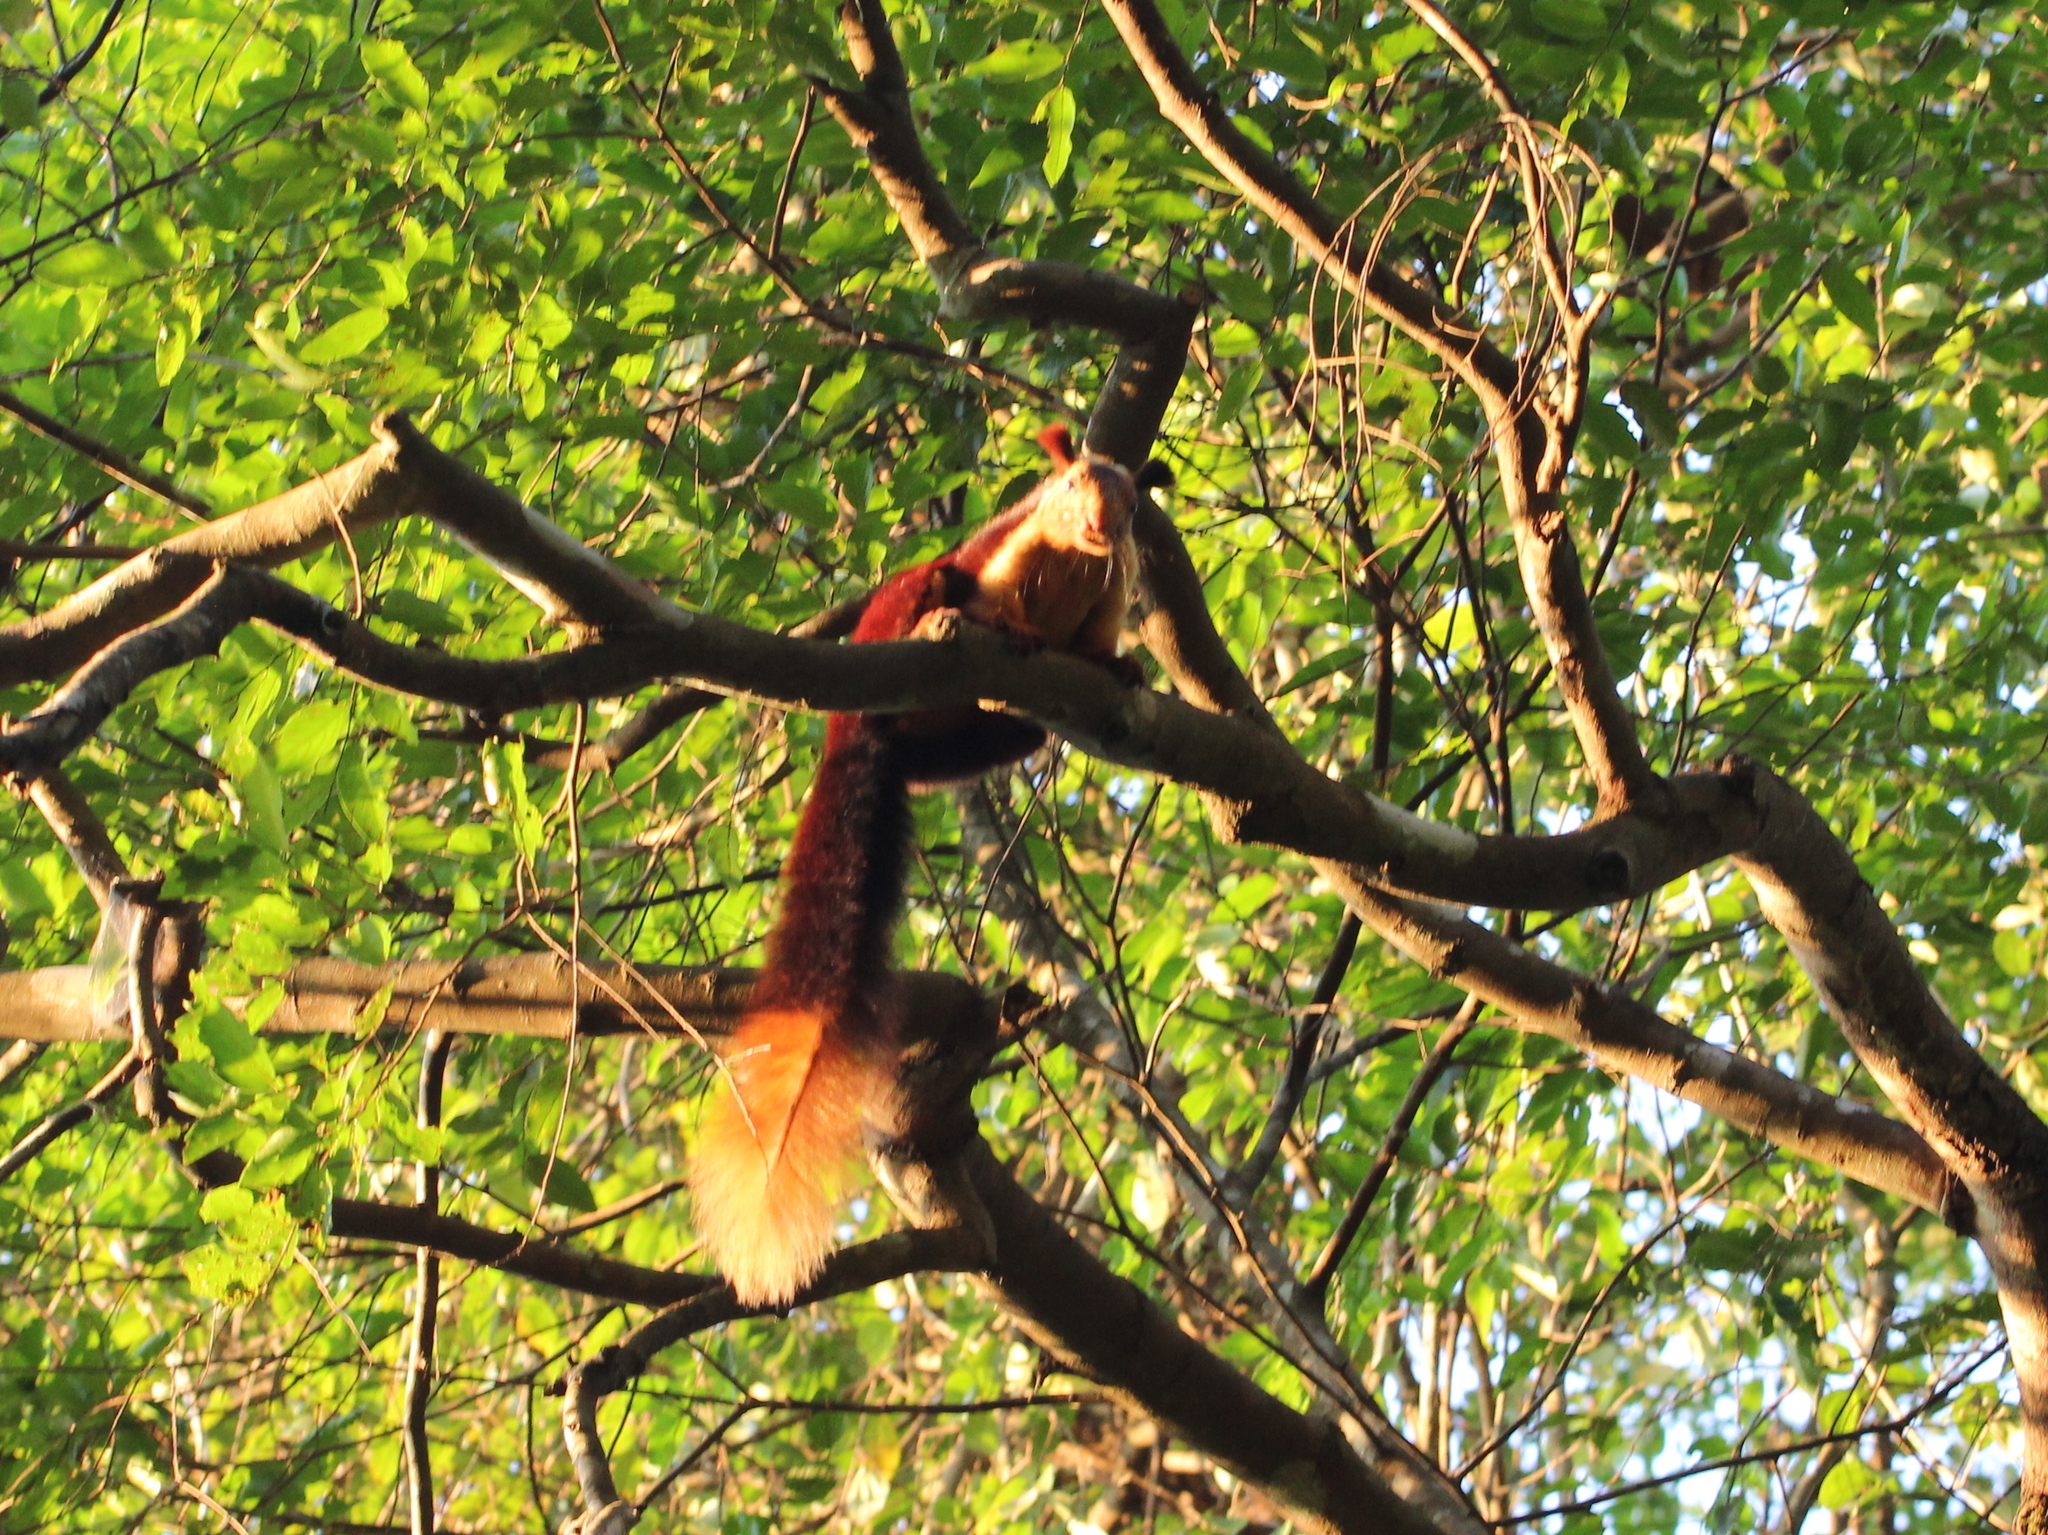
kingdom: Animalia
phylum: Chordata
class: Mammalia
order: Rodentia
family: Sciuridae
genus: Ratufa
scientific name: Ratufa indica
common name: Indian giant squirrel
